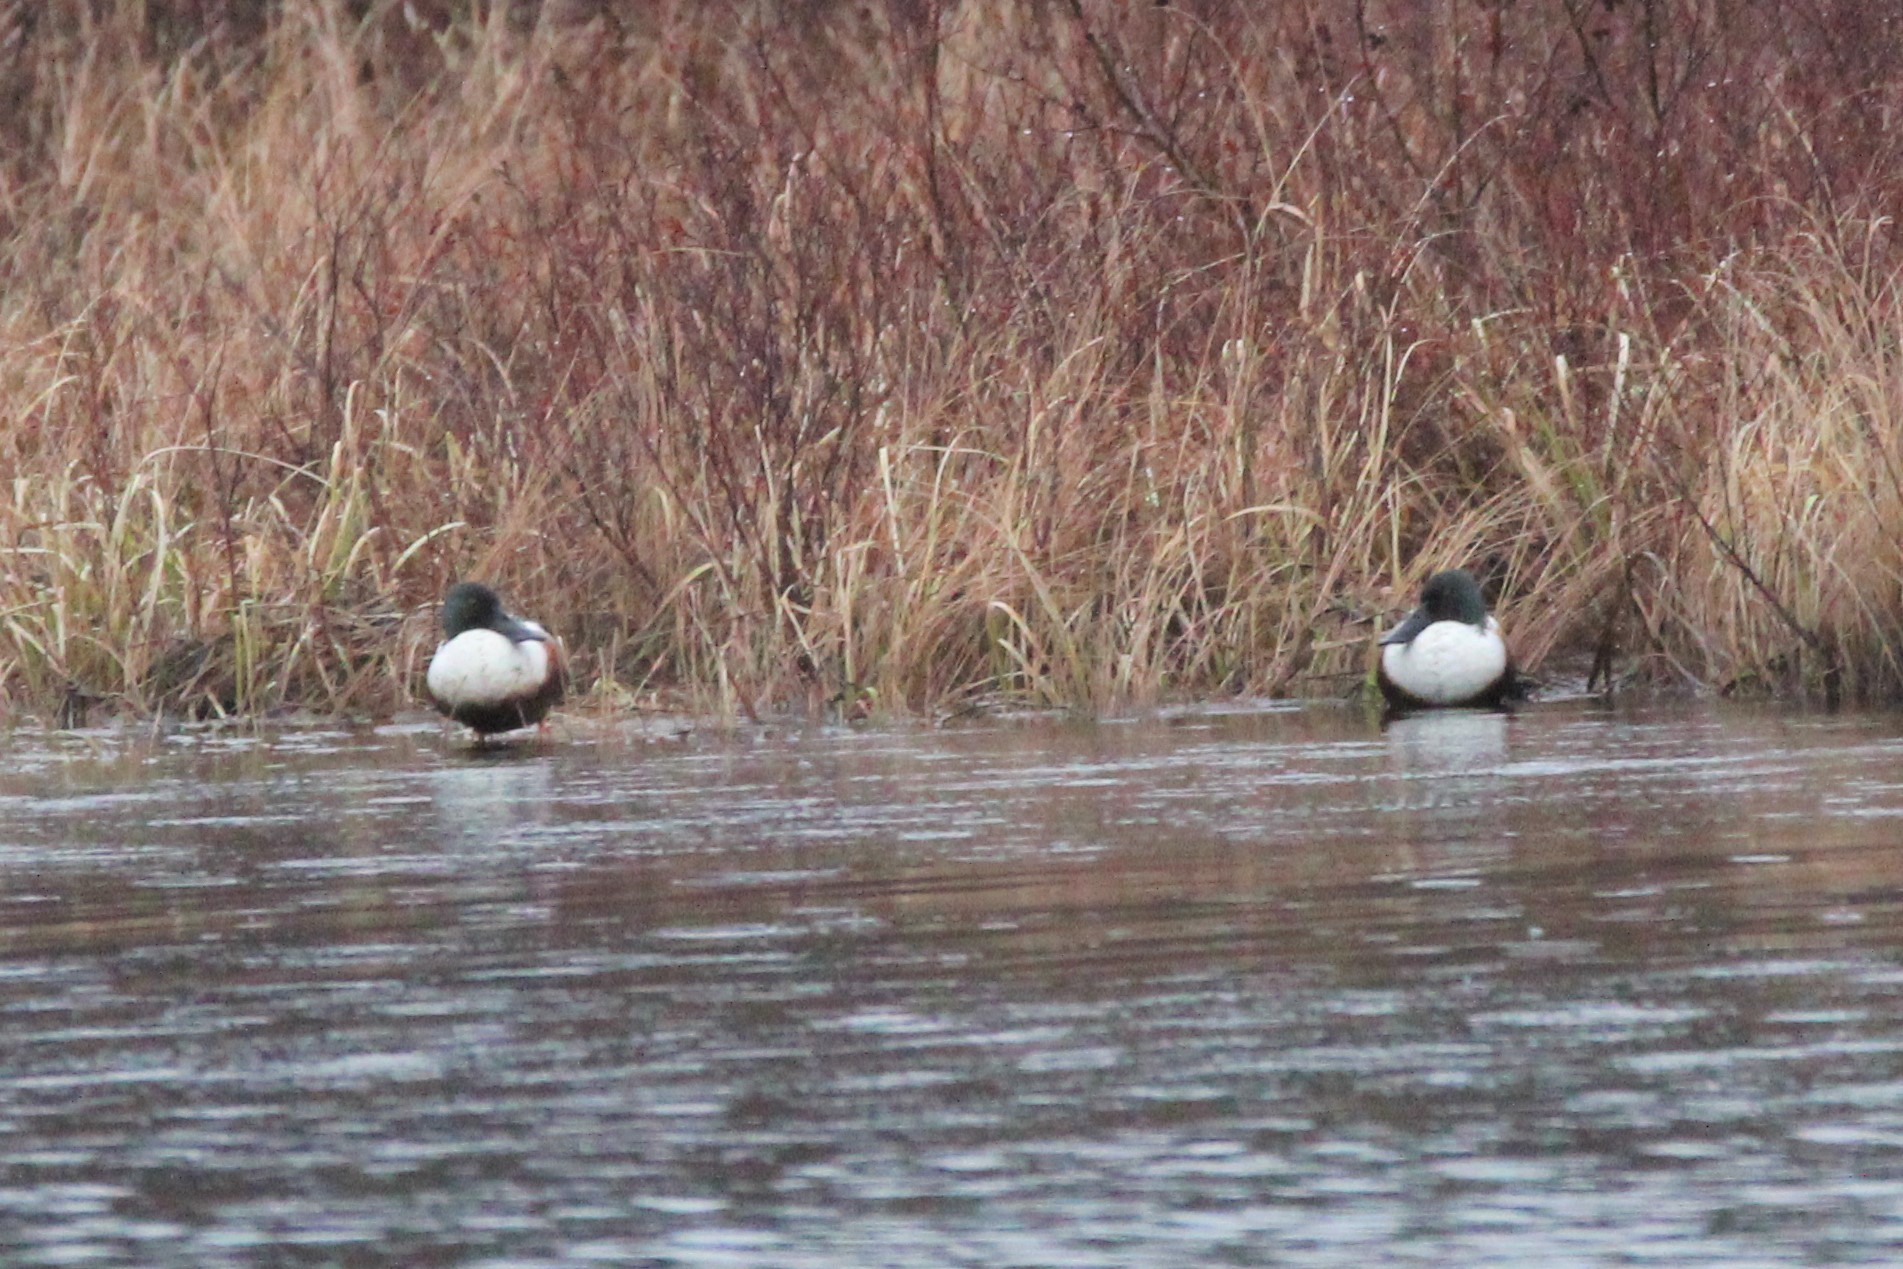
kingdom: Animalia
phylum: Chordata
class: Aves
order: Anseriformes
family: Anatidae
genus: Spatula
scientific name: Spatula clypeata
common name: Northern shoveler
